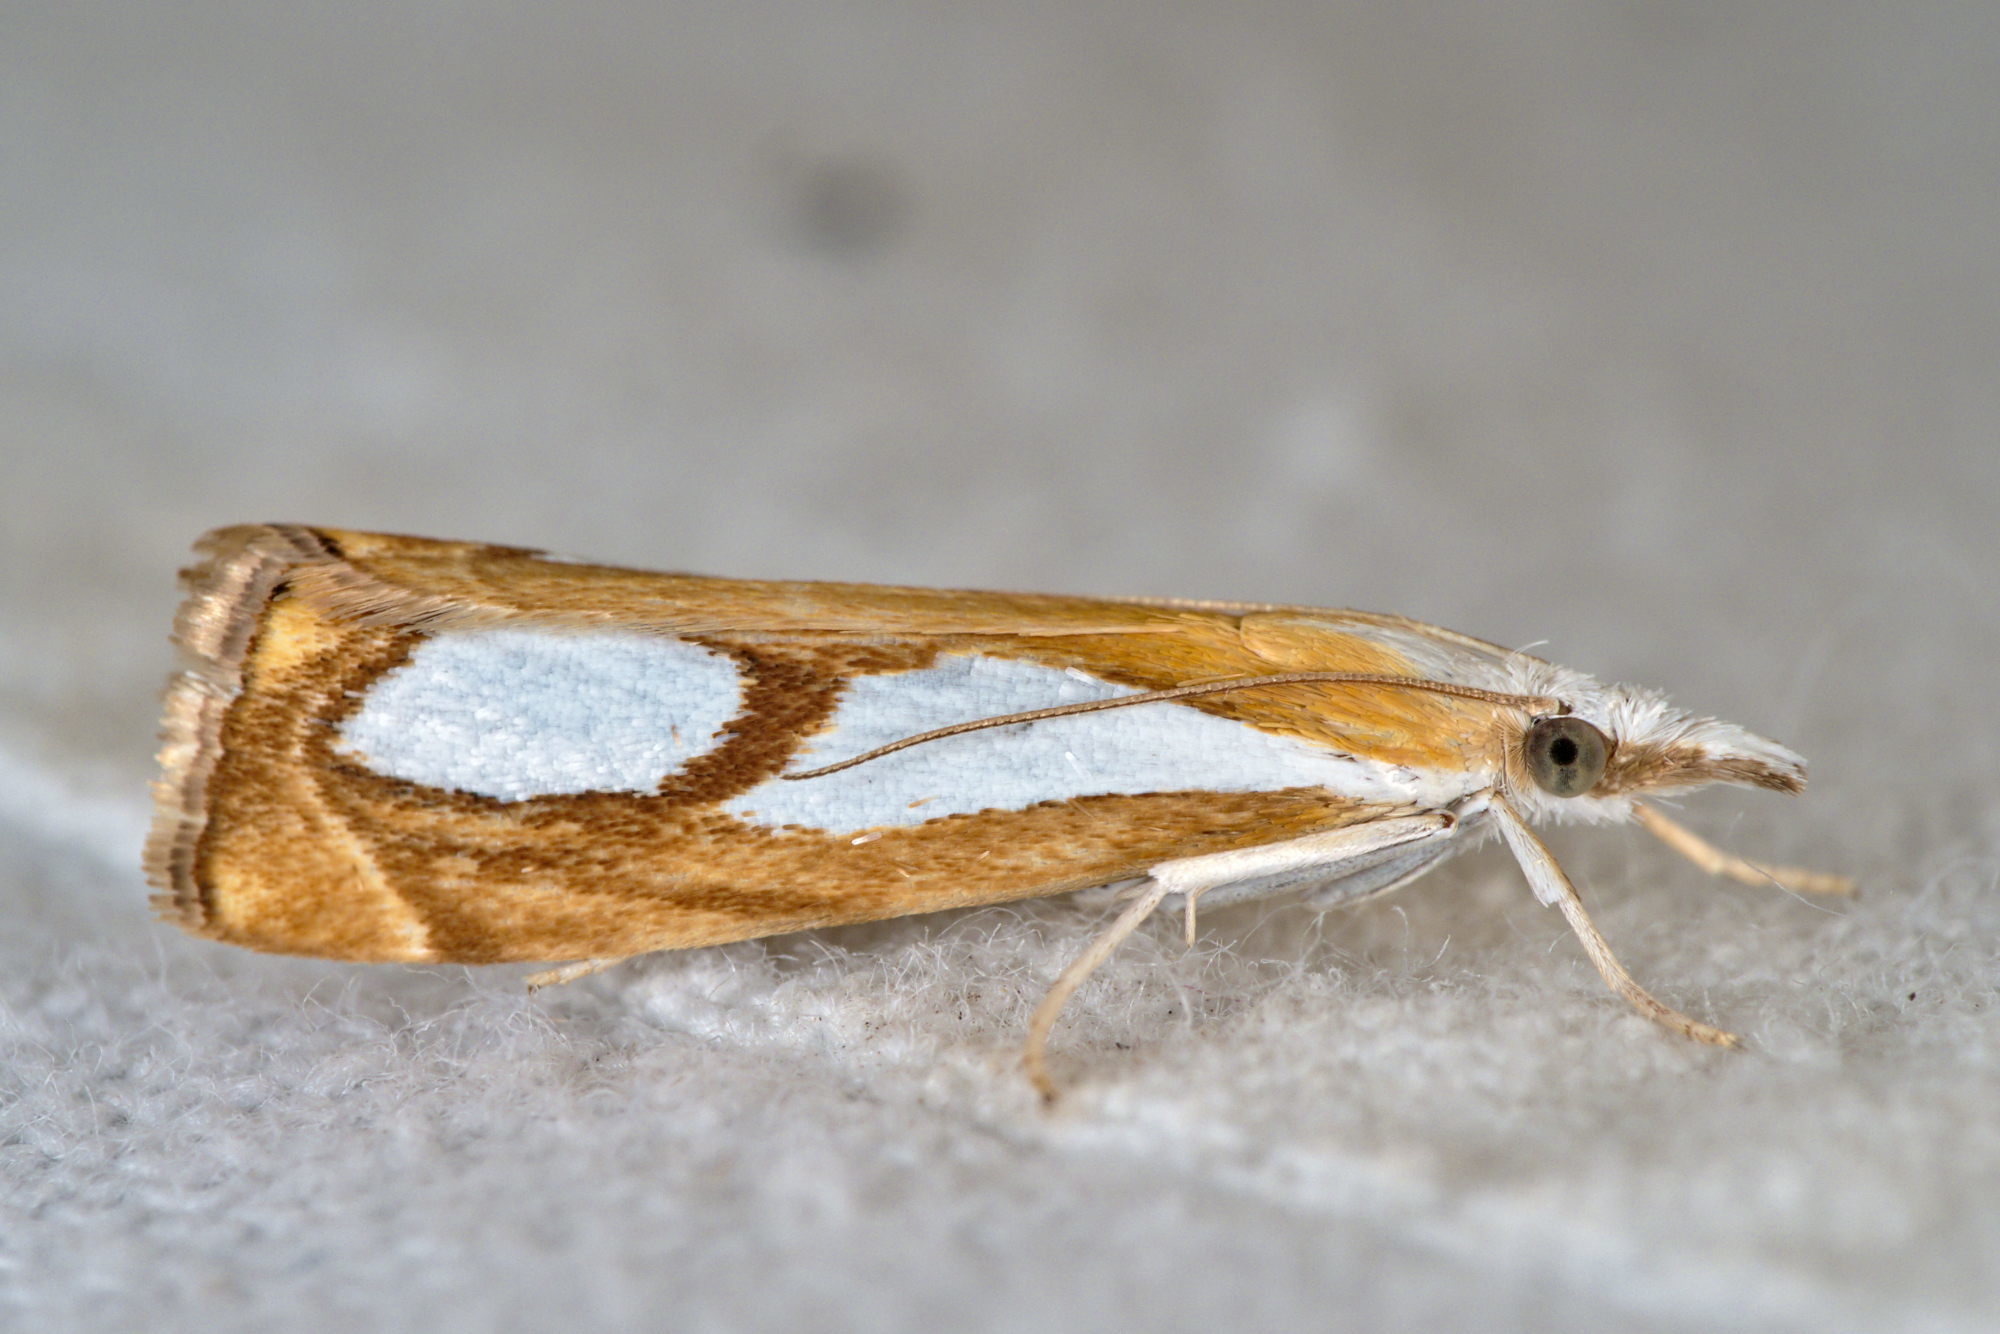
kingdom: Animalia
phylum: Arthropoda
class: Insecta
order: Lepidoptera
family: Crambidae
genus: Catoptria
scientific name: Catoptria pinella
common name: Pearl grass-veneer
